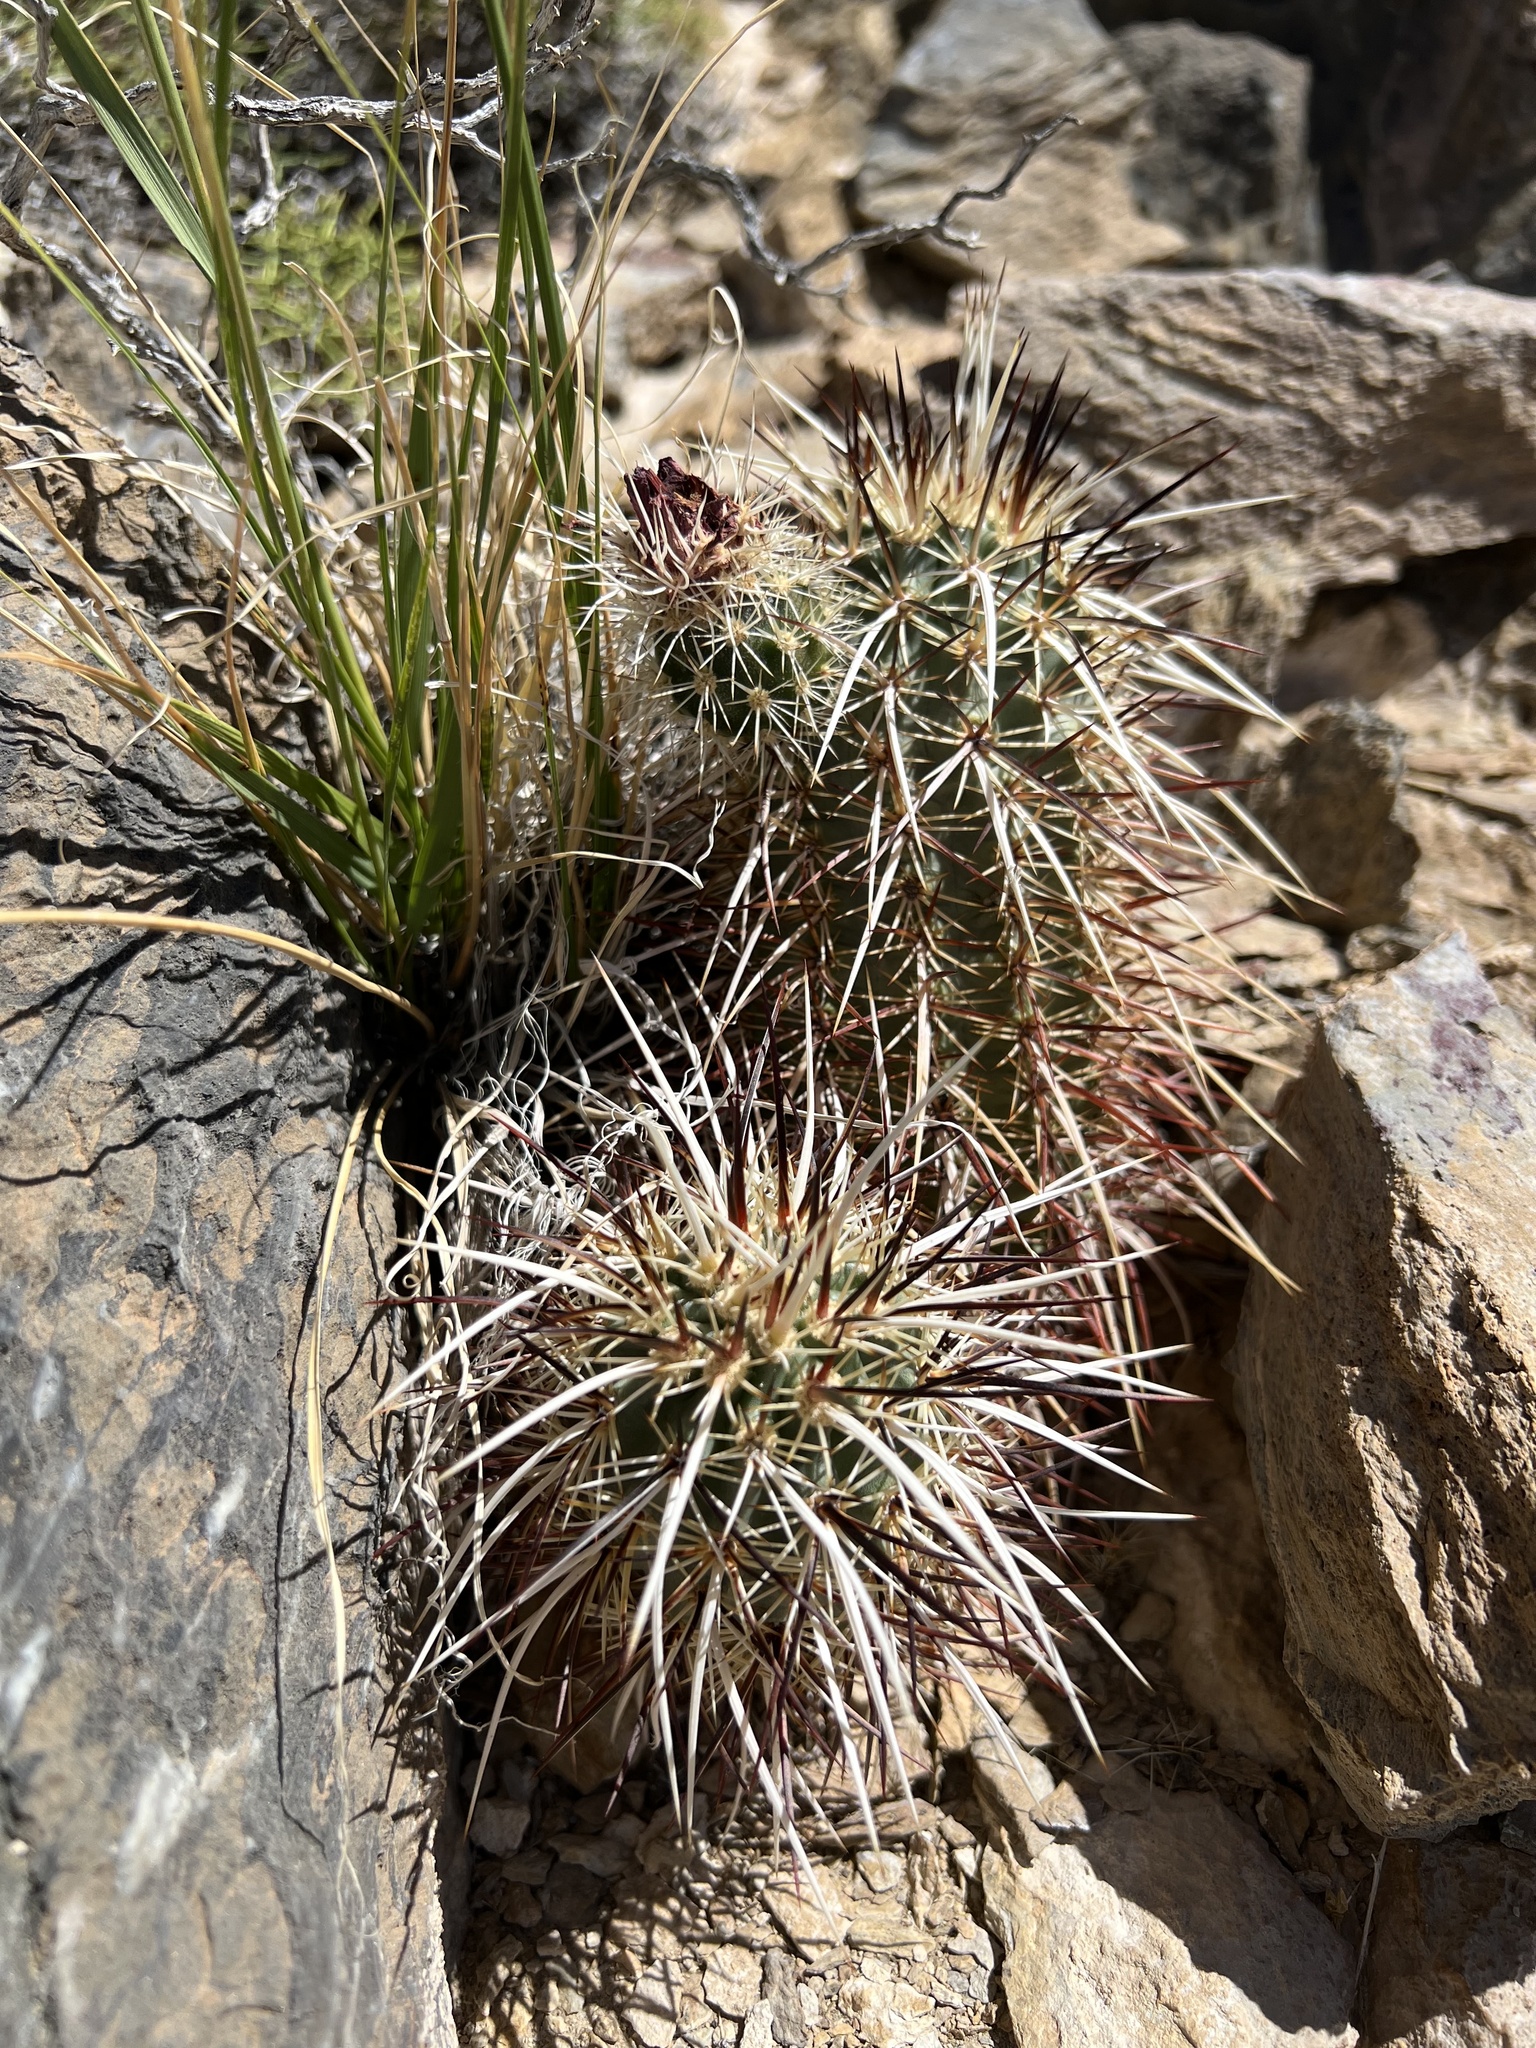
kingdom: Plantae
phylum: Tracheophyta
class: Magnoliopsida
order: Caryophyllales
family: Cactaceae
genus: Echinocereus
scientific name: Echinocereus engelmannii
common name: Engelmann's hedgehog cactus
